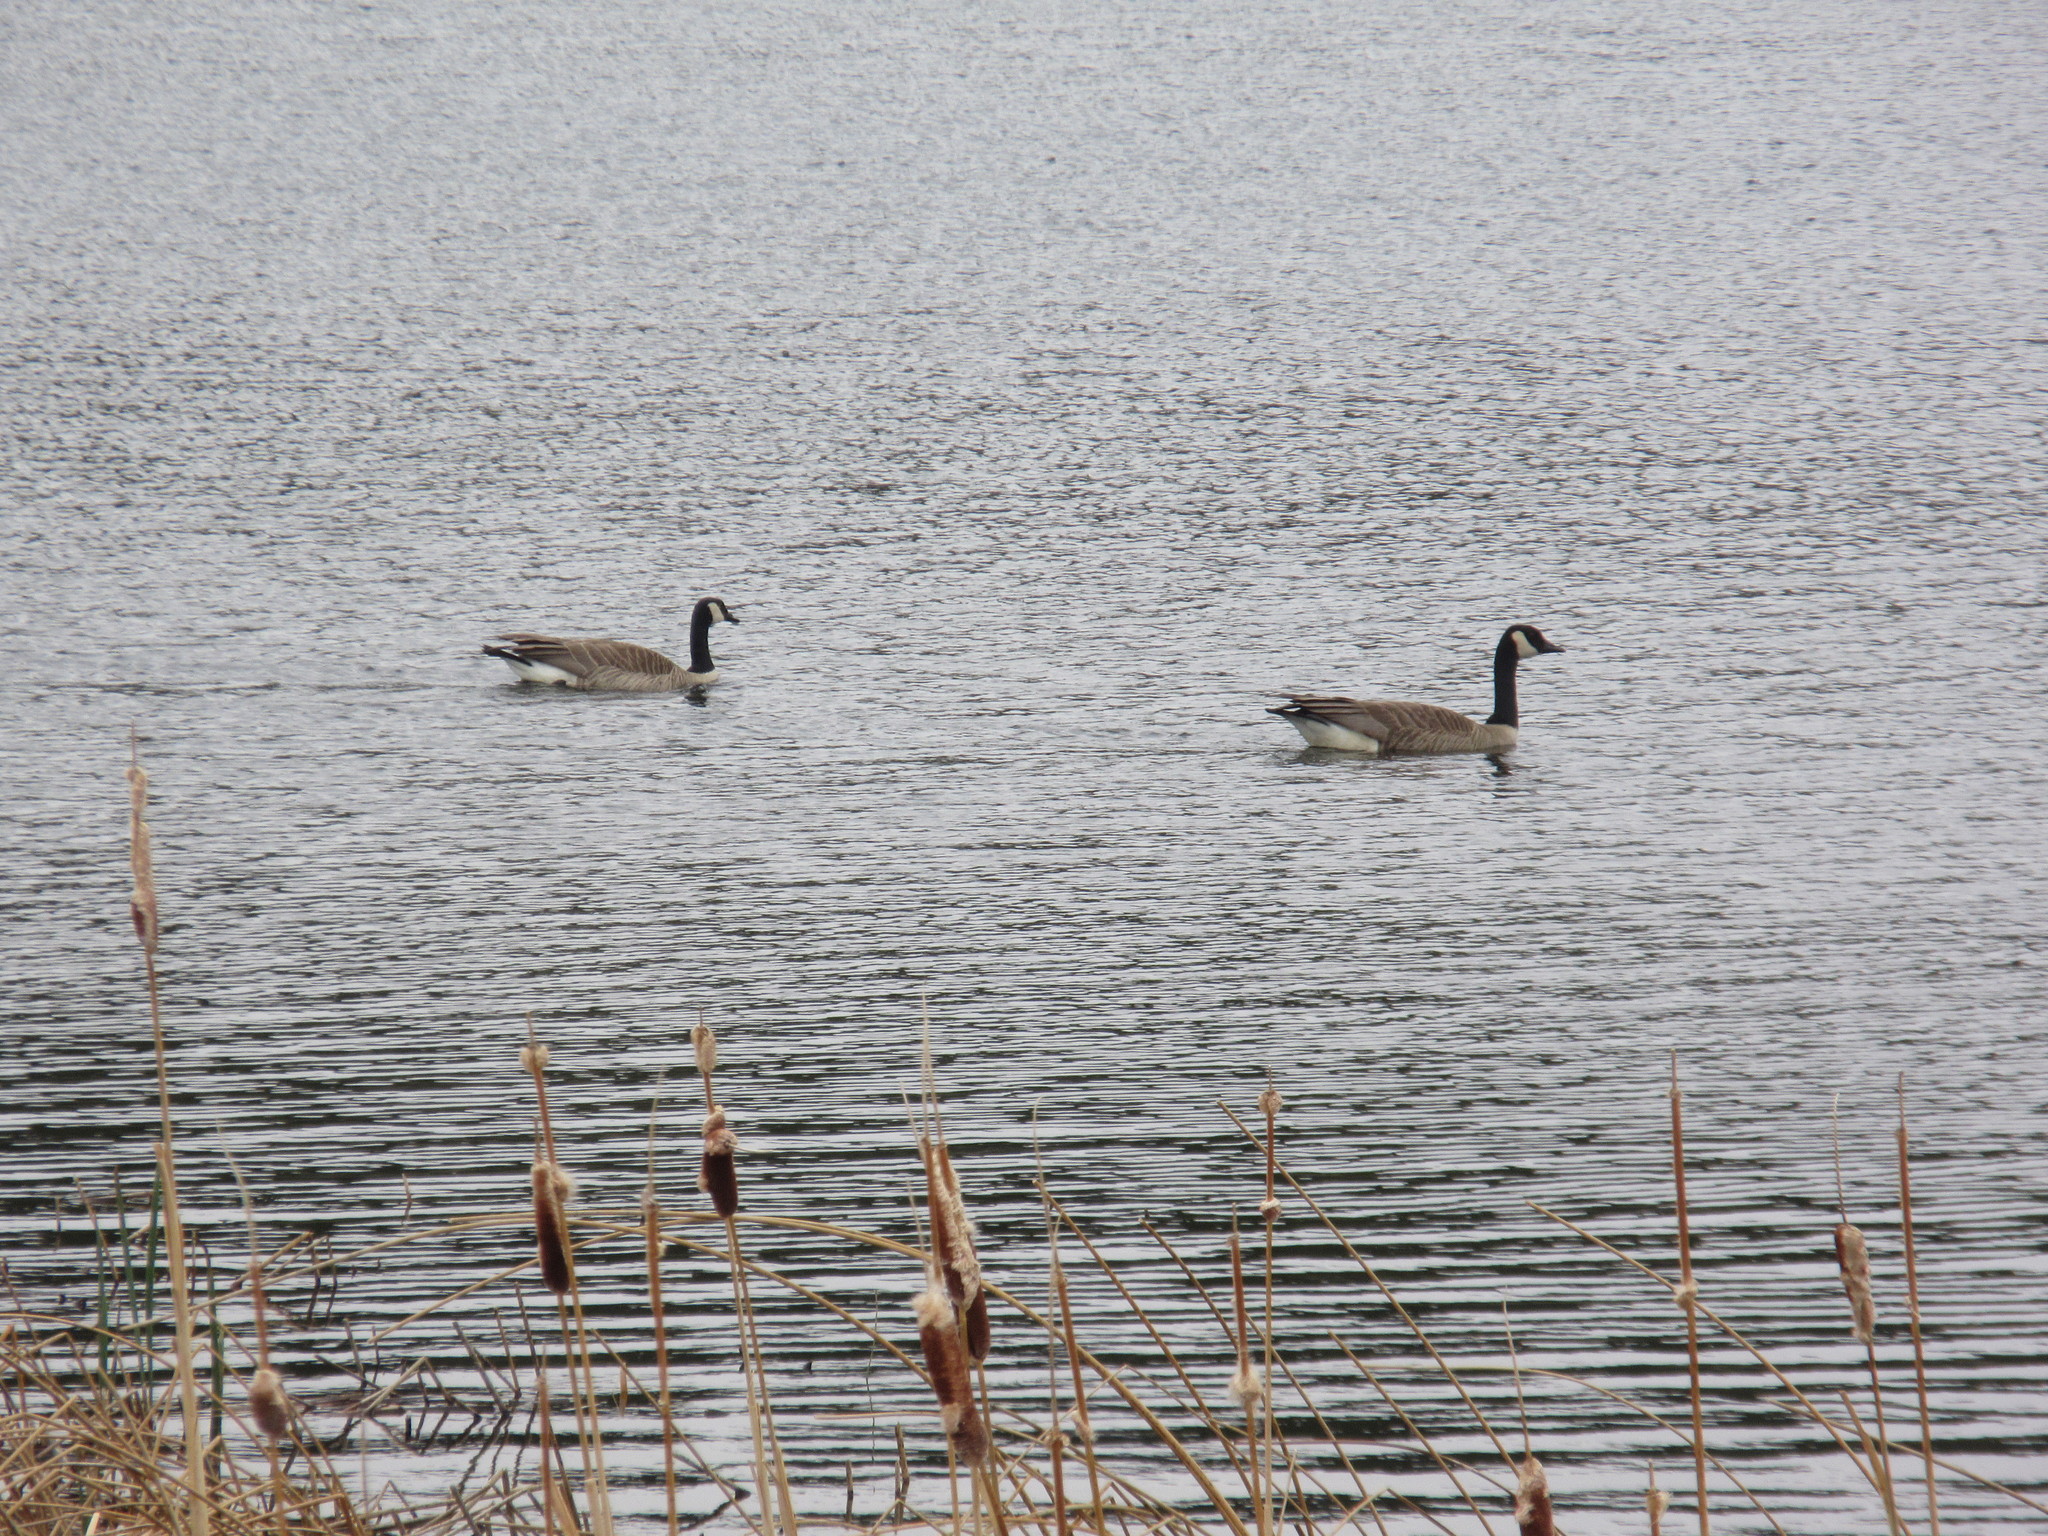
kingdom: Animalia
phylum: Chordata
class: Aves
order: Anseriformes
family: Anatidae
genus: Branta
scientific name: Branta canadensis
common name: Canada goose
